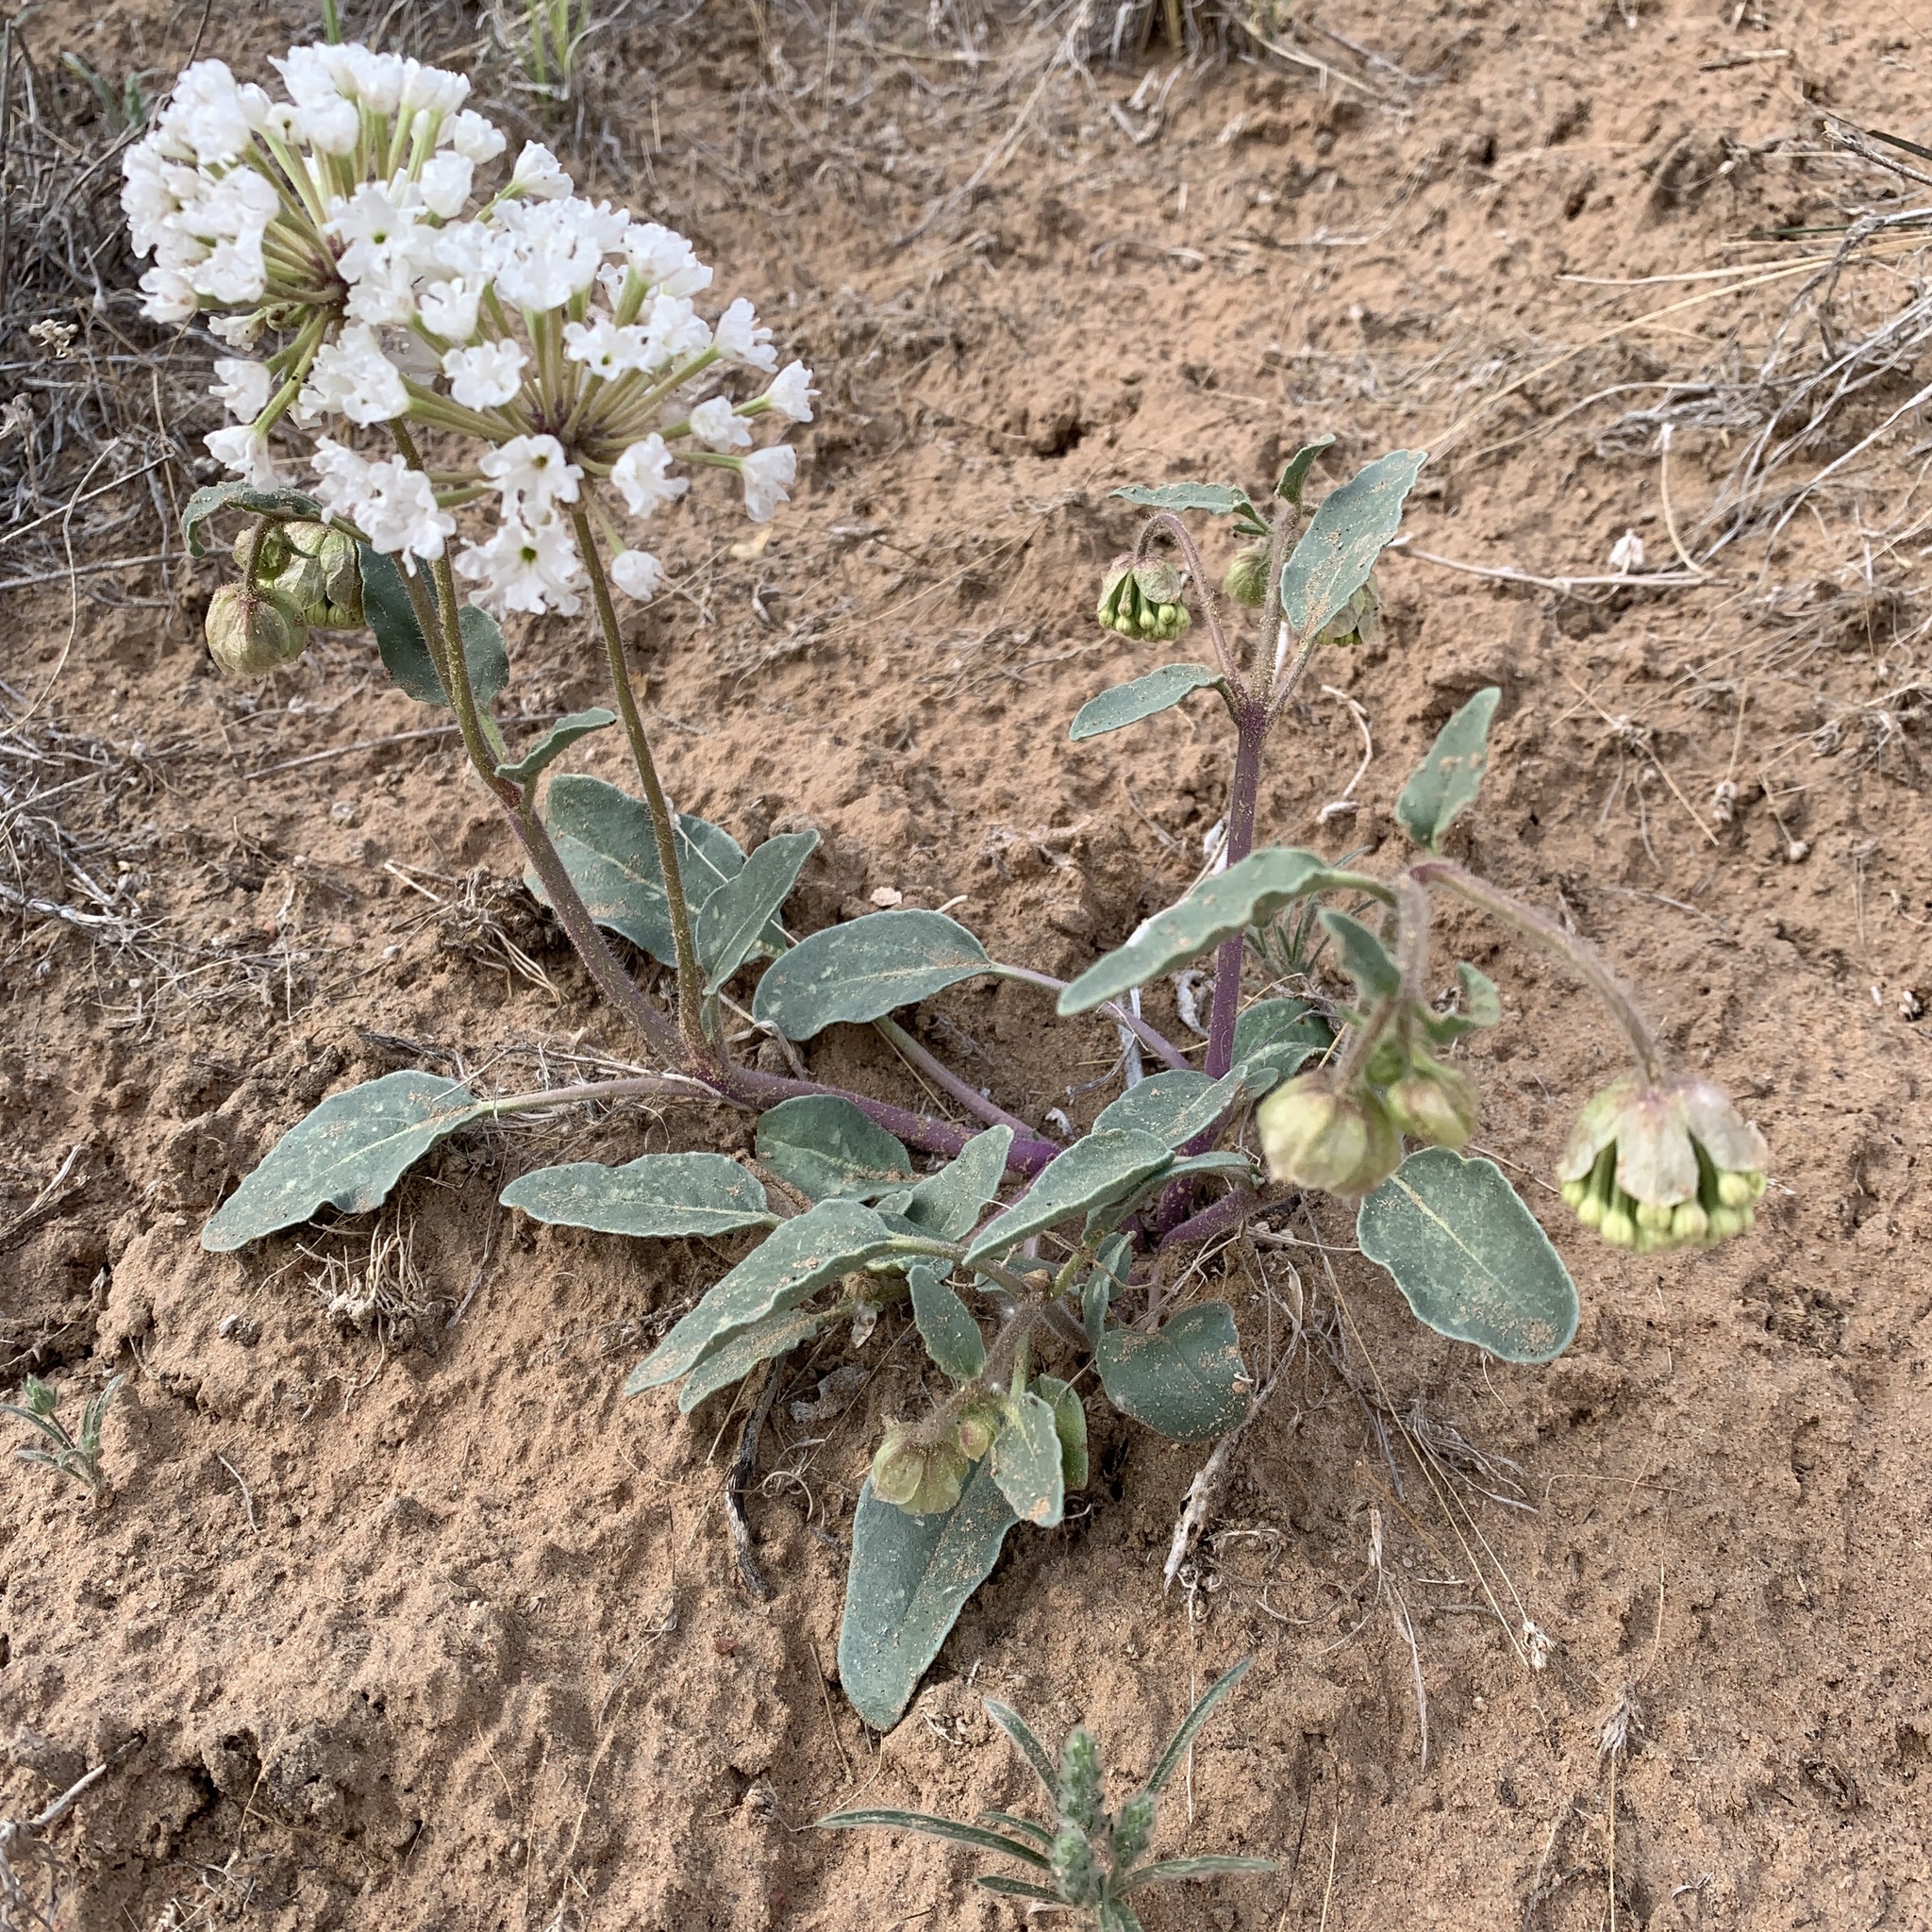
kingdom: Plantae
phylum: Tracheophyta
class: Magnoliopsida
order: Caryophyllales
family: Nyctaginaceae
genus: Abronia
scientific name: Abronia fragrans
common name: Fragrant sand-verbena
